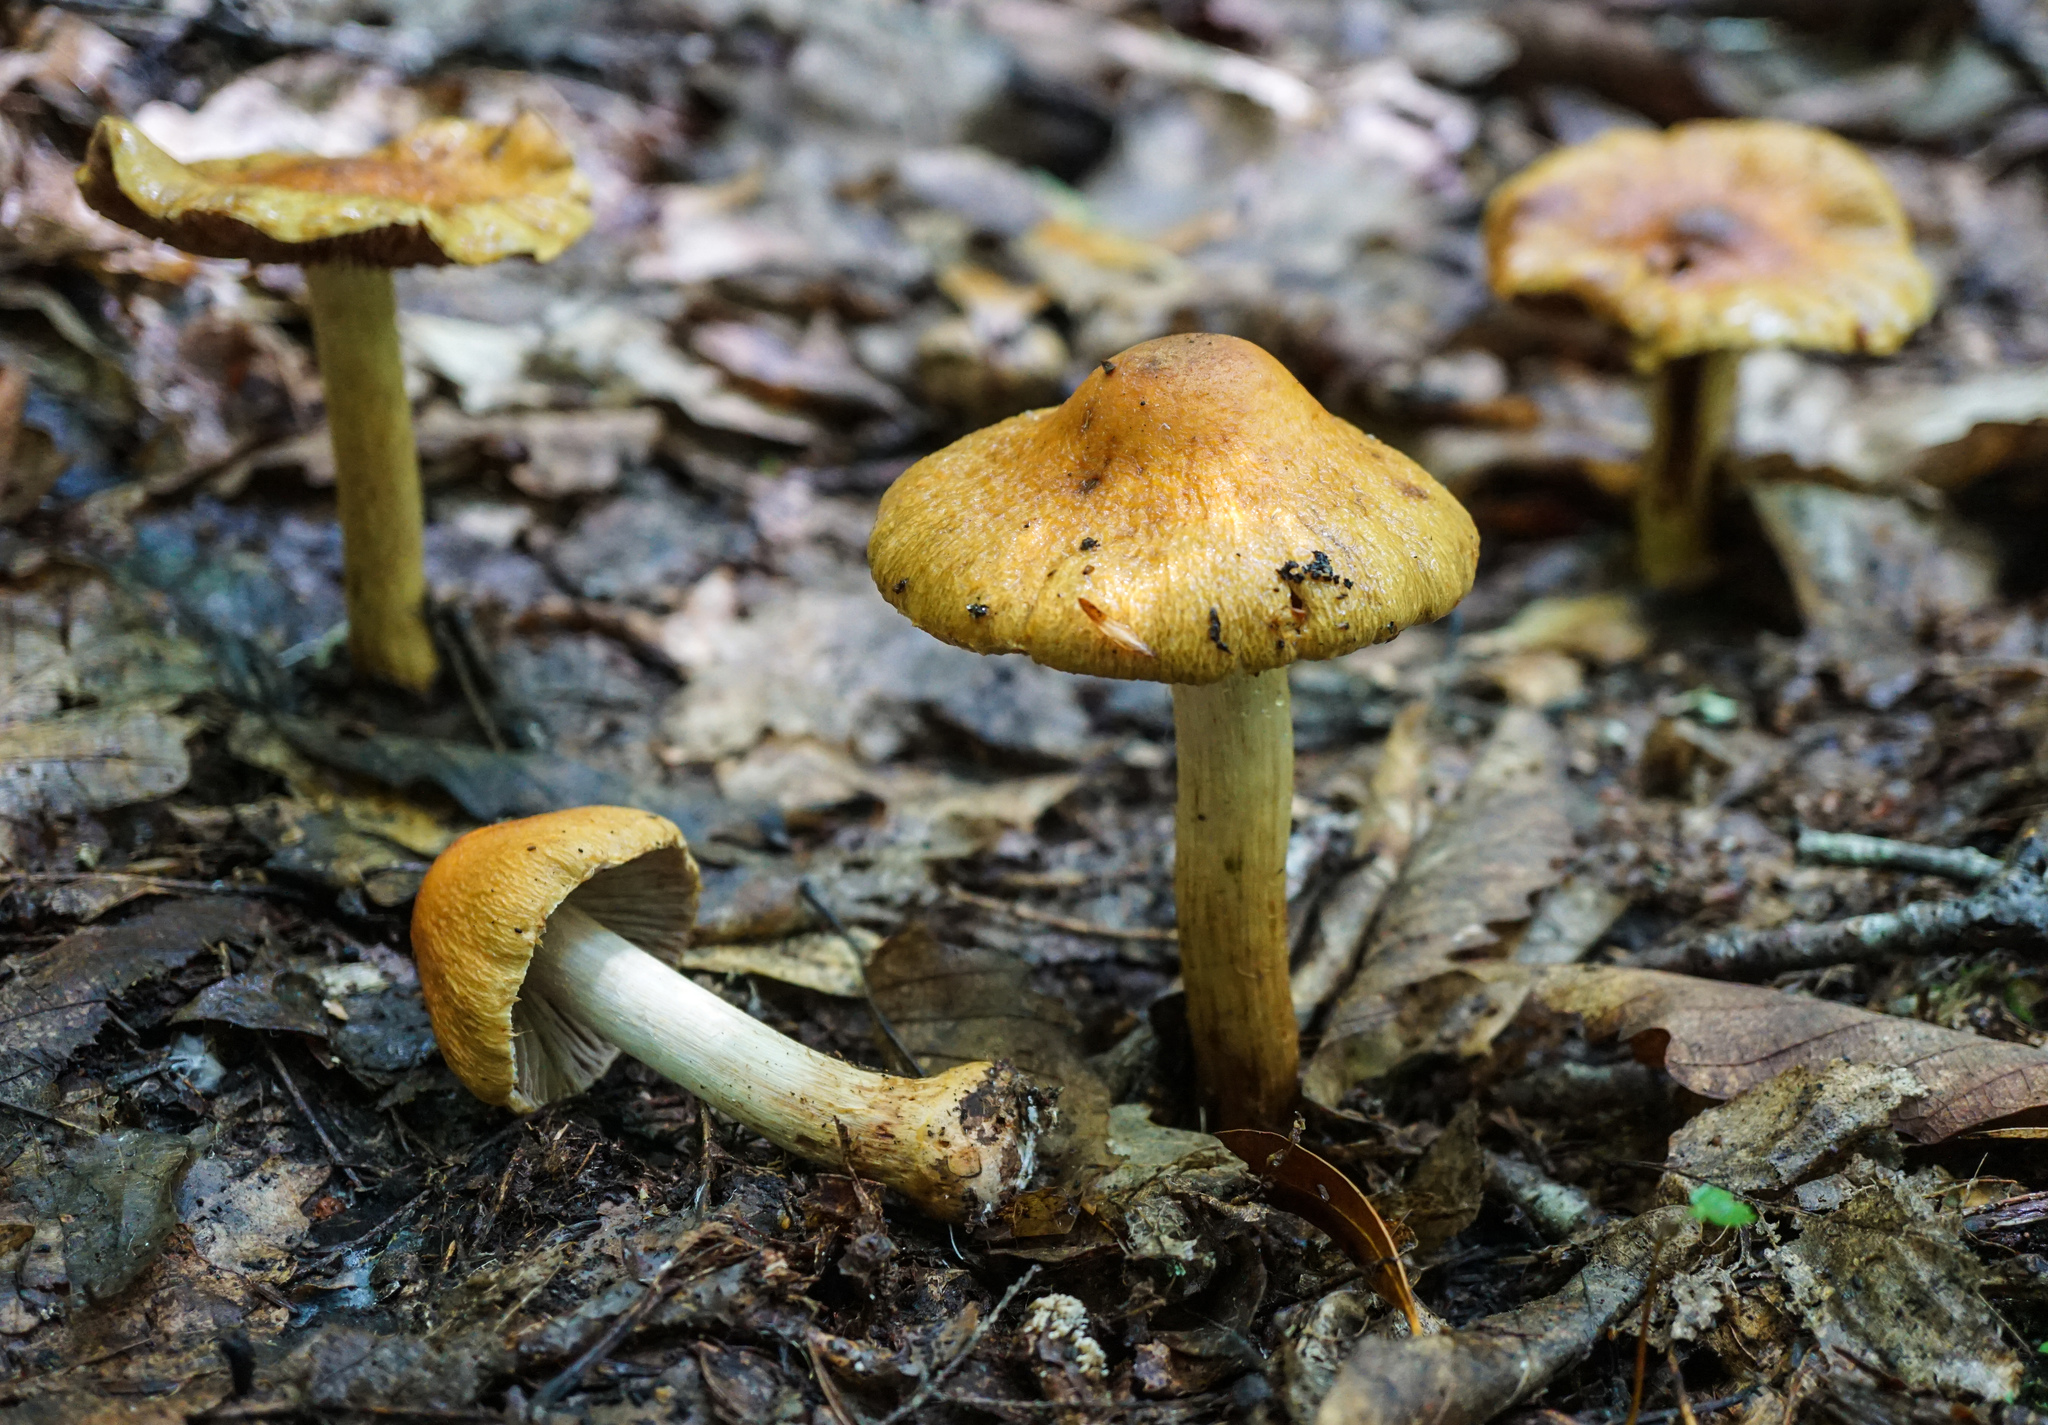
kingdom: Fungi
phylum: Basidiomycota
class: Agaricomycetes
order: Agaricales
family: Cortinariaceae
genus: Cortinarius
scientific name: Cortinarius corrugatus
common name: Wrinkled cortinarius
